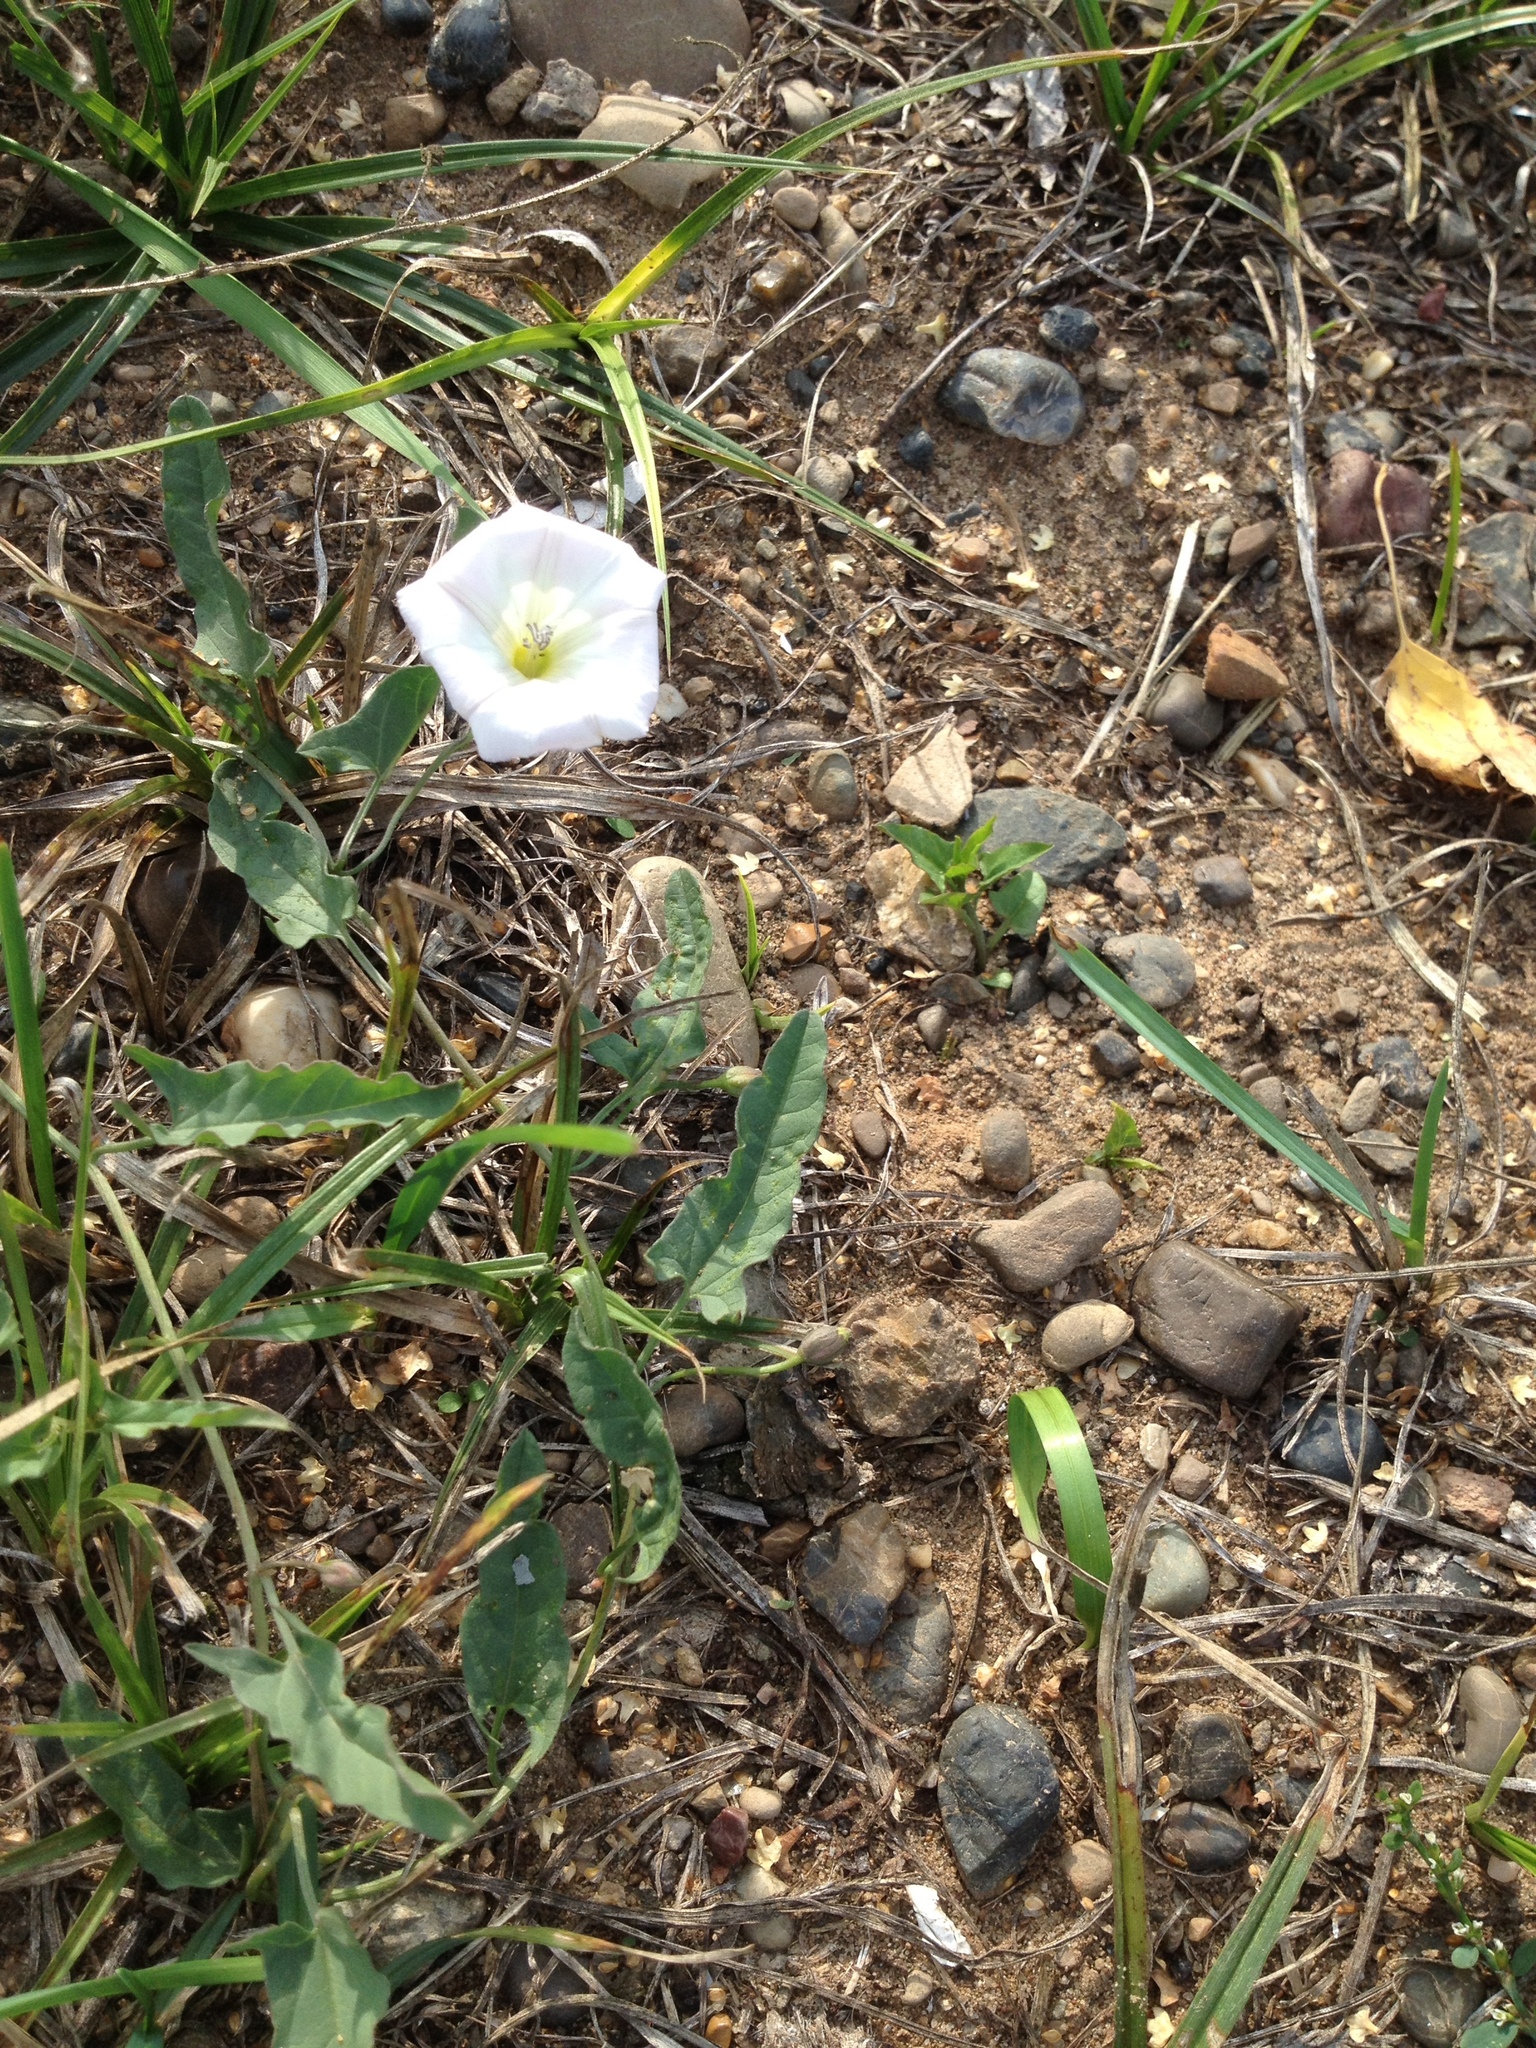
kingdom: Plantae
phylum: Tracheophyta
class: Magnoliopsida
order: Solanales
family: Convolvulaceae
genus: Convolvulus
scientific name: Convolvulus arvensis
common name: Field bindweed
